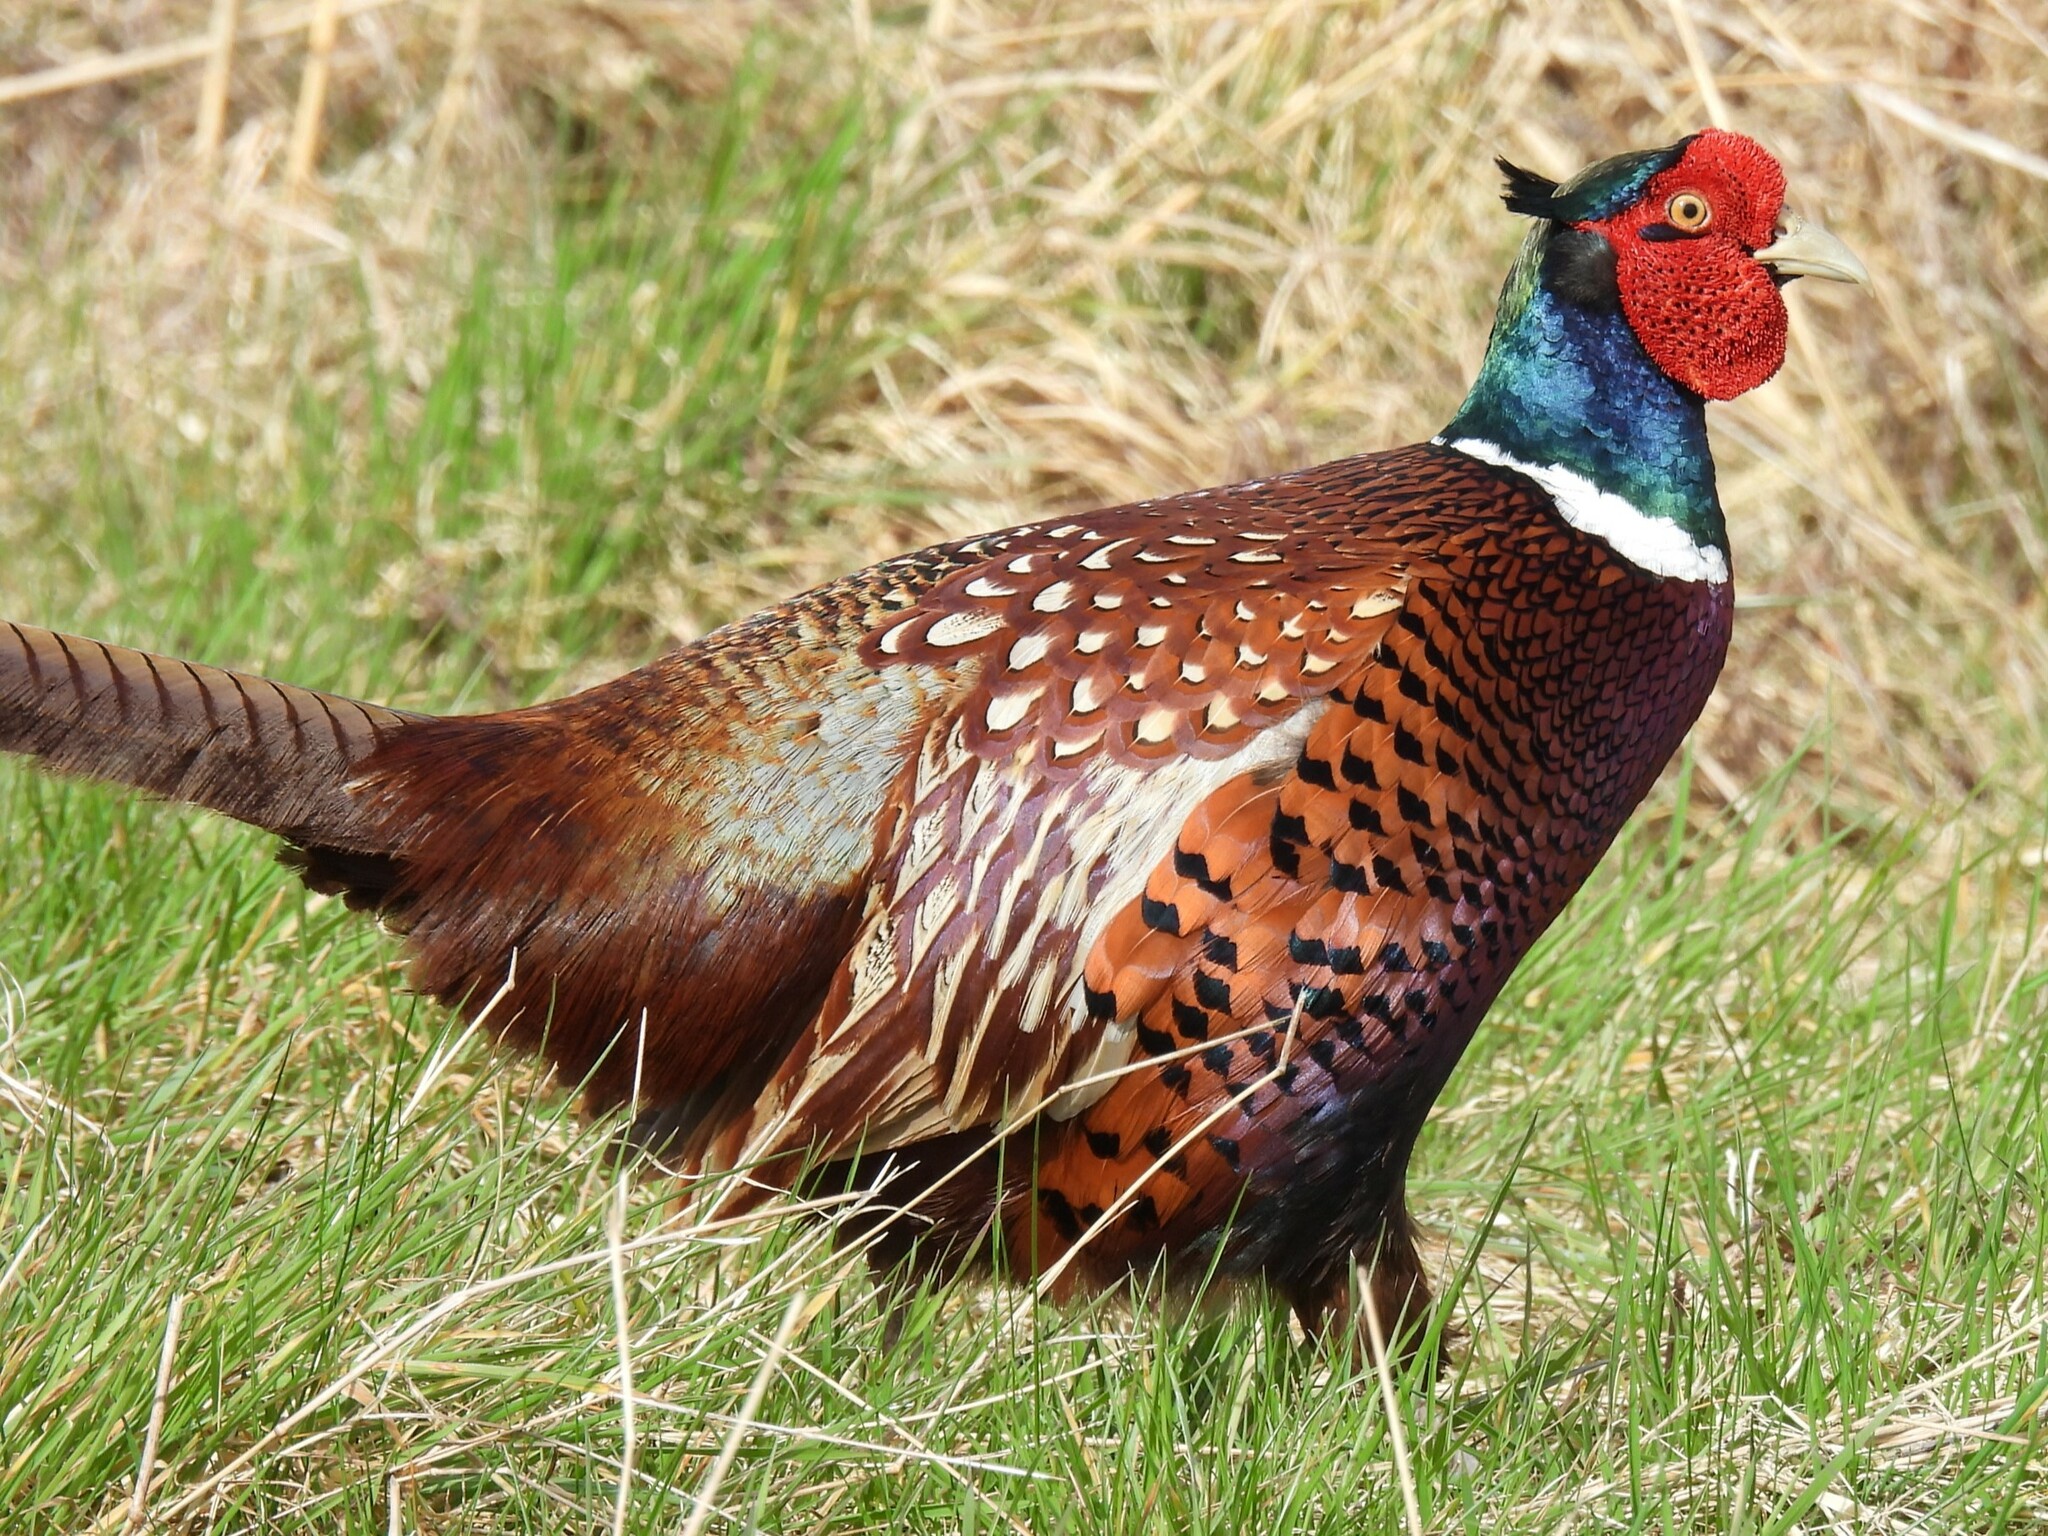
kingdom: Animalia
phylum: Chordata
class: Aves
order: Galliformes
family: Phasianidae
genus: Phasianus
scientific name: Phasianus colchicus
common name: Common pheasant
